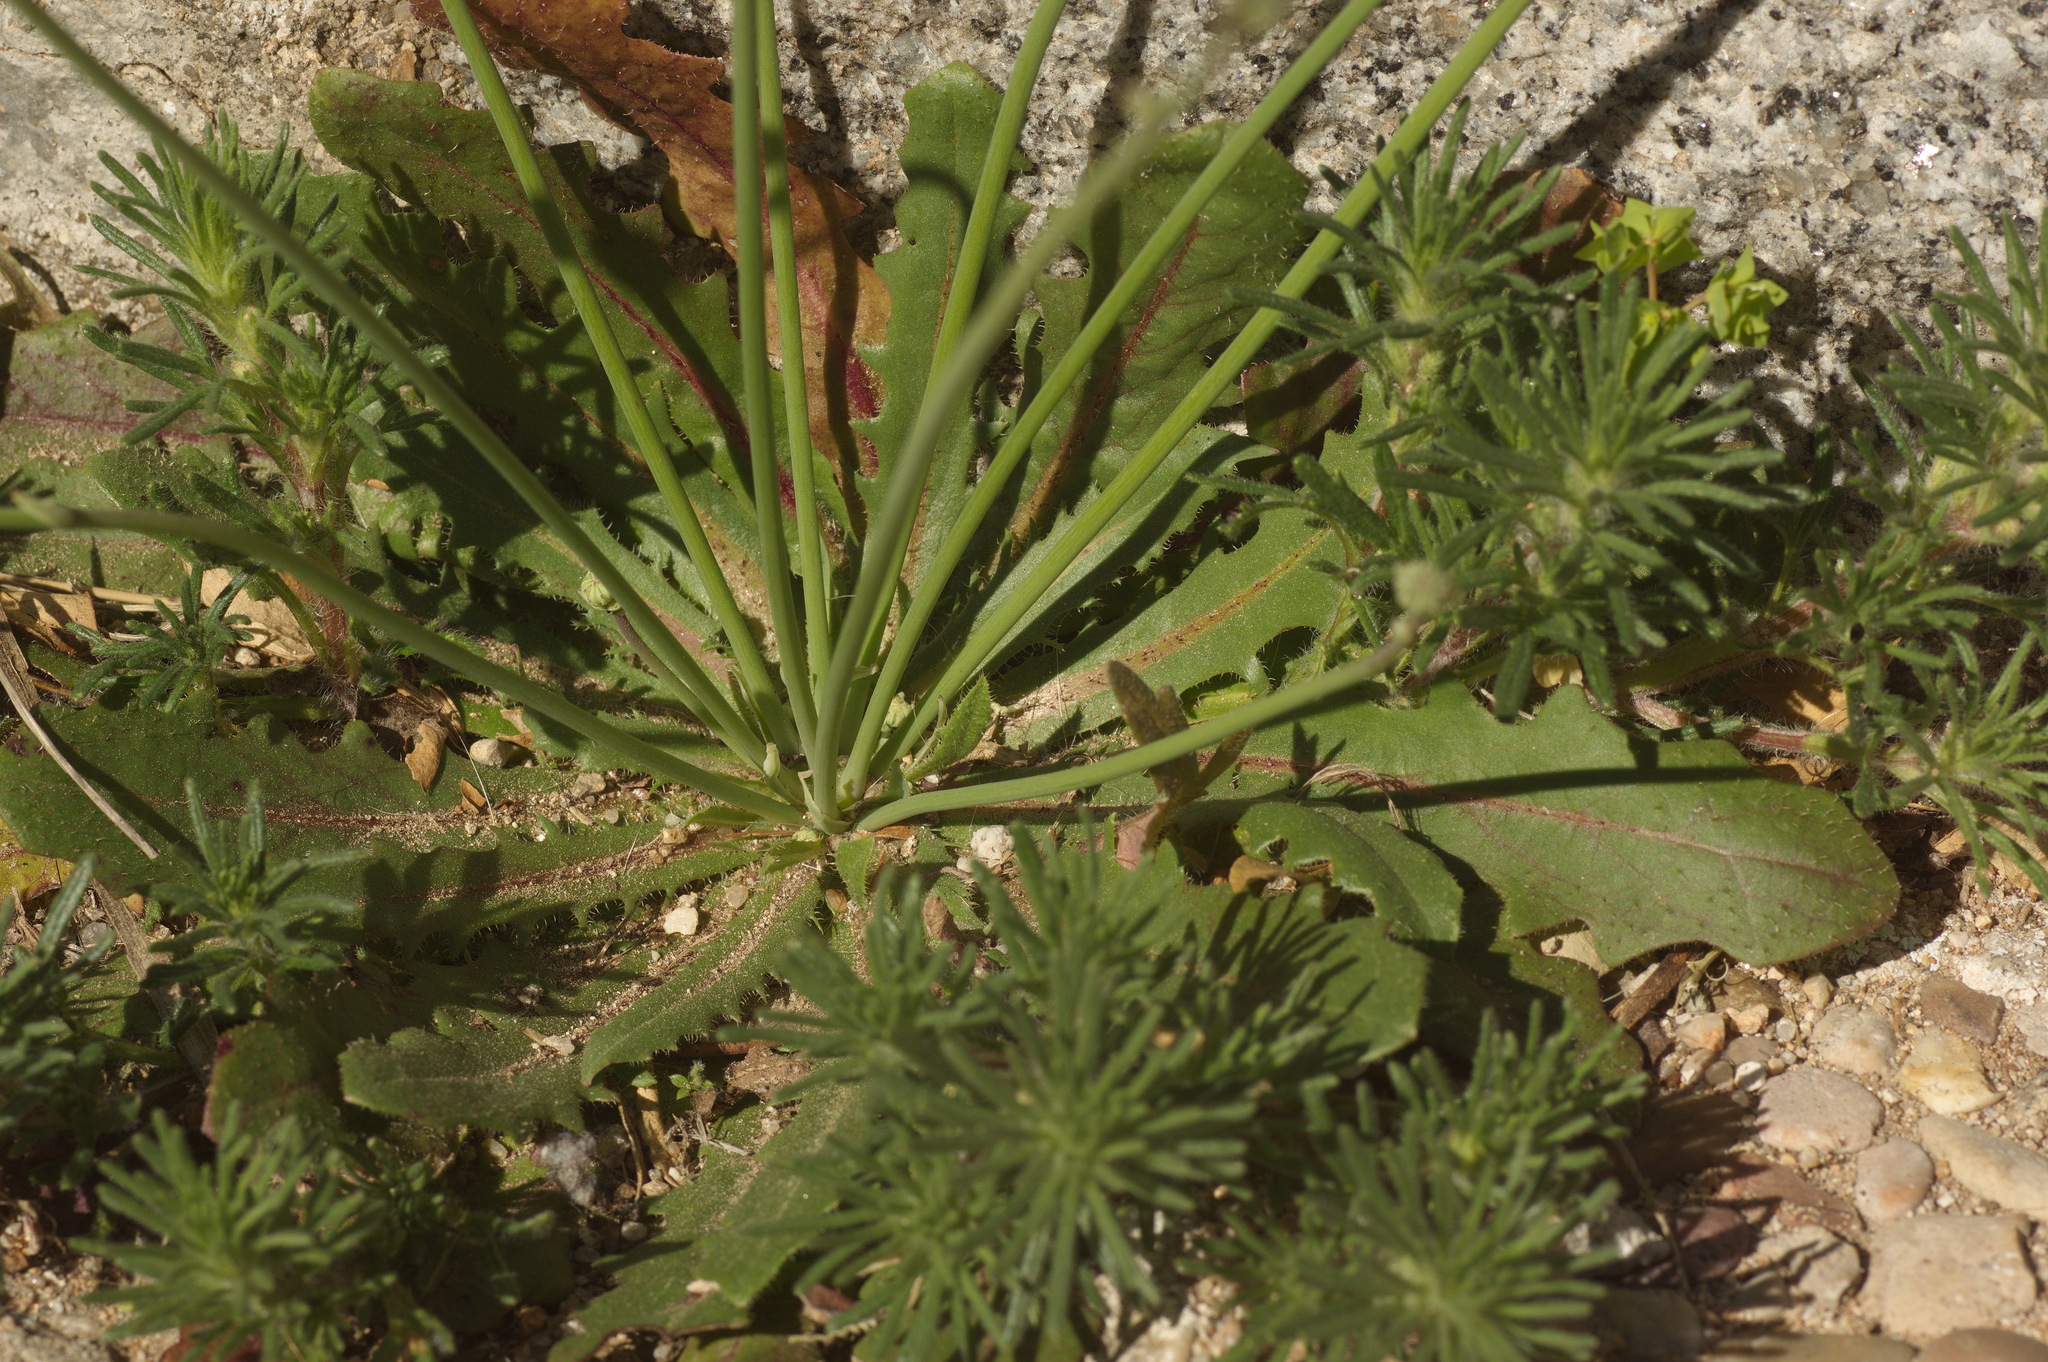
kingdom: Plantae
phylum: Tracheophyta
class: Magnoliopsida
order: Asterales
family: Asteraceae
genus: Hypochaeris
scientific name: Hypochaeris glabra
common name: Smooth catsear
